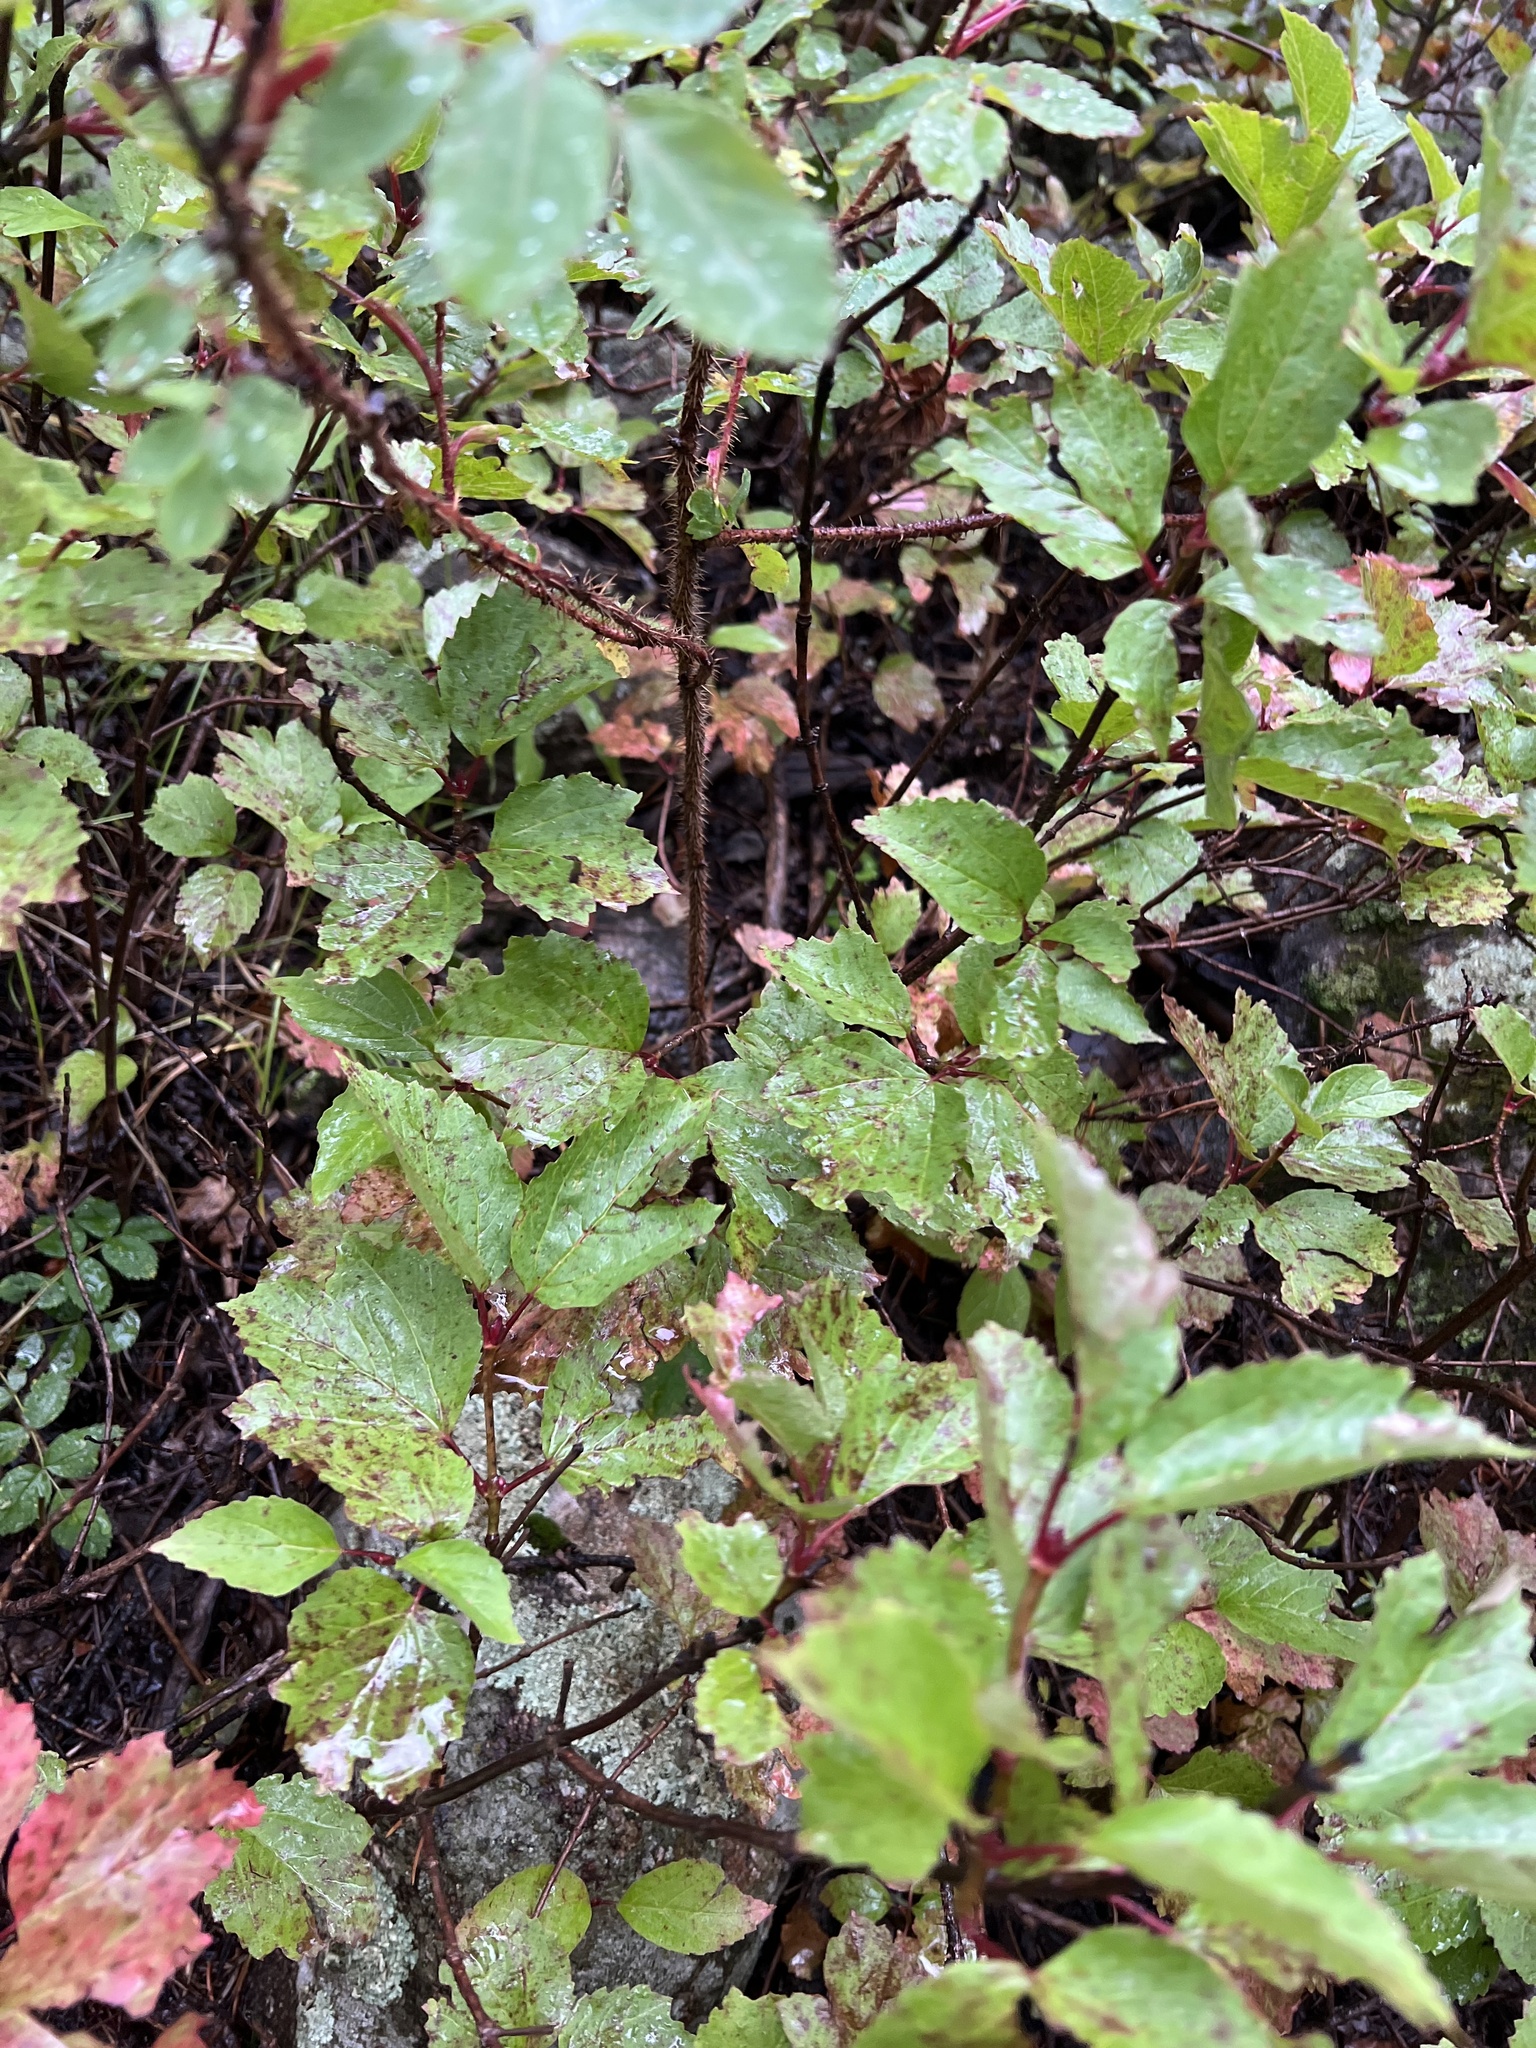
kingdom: Plantae
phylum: Tracheophyta
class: Magnoliopsida
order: Dipsacales
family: Viburnaceae
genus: Viburnum
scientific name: Viburnum edule
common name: Mooseberry
